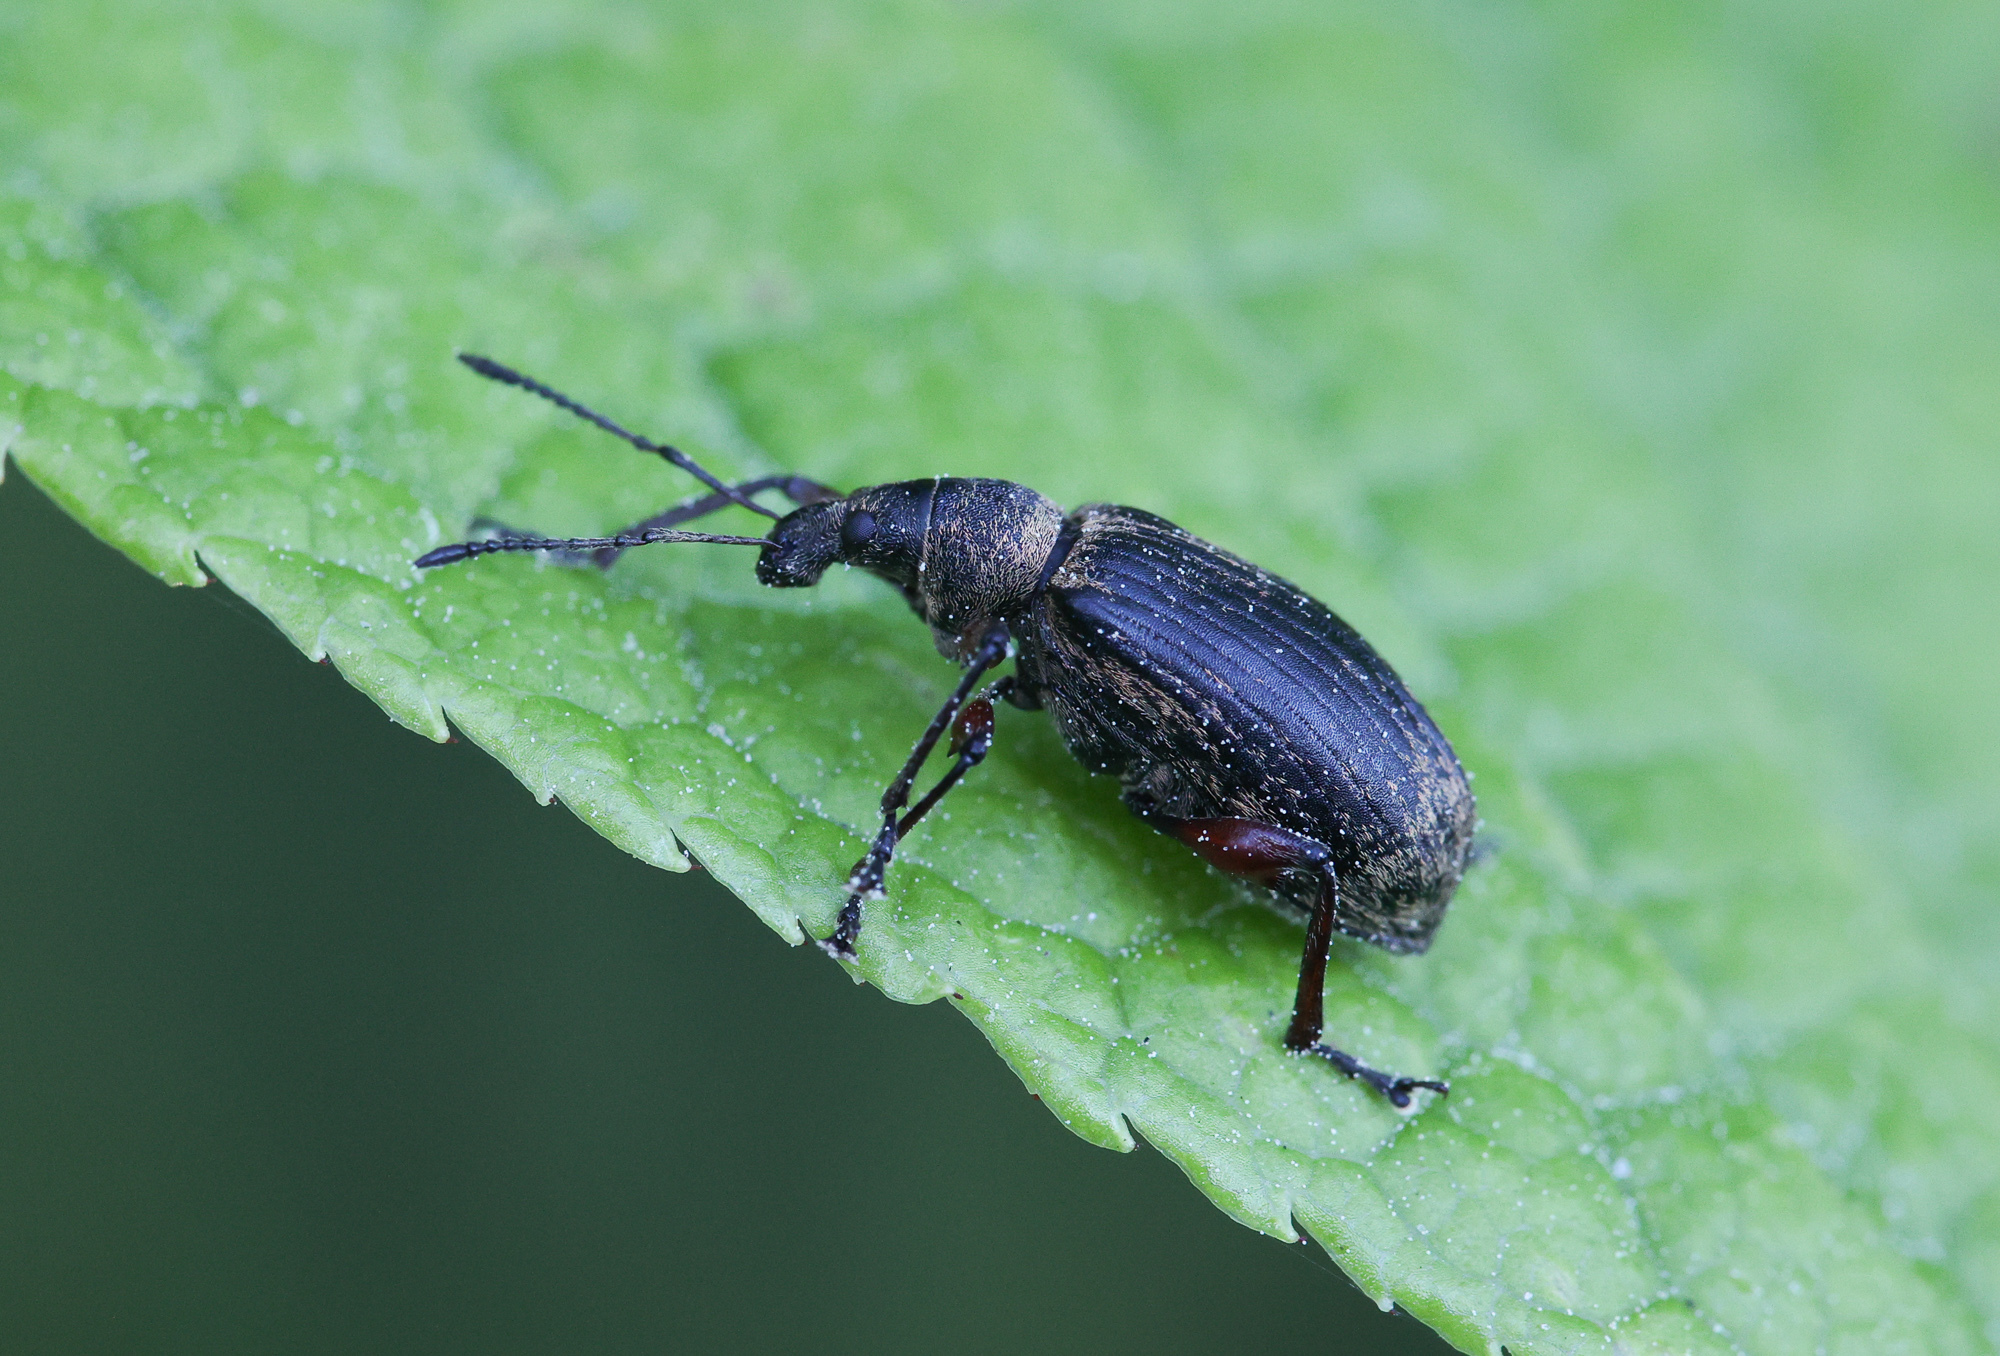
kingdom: Animalia
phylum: Arthropoda
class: Insecta
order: Coleoptera
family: Curculionidae
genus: Phyllobius
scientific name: Phyllobius pomaceus
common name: Green nettle weevil
